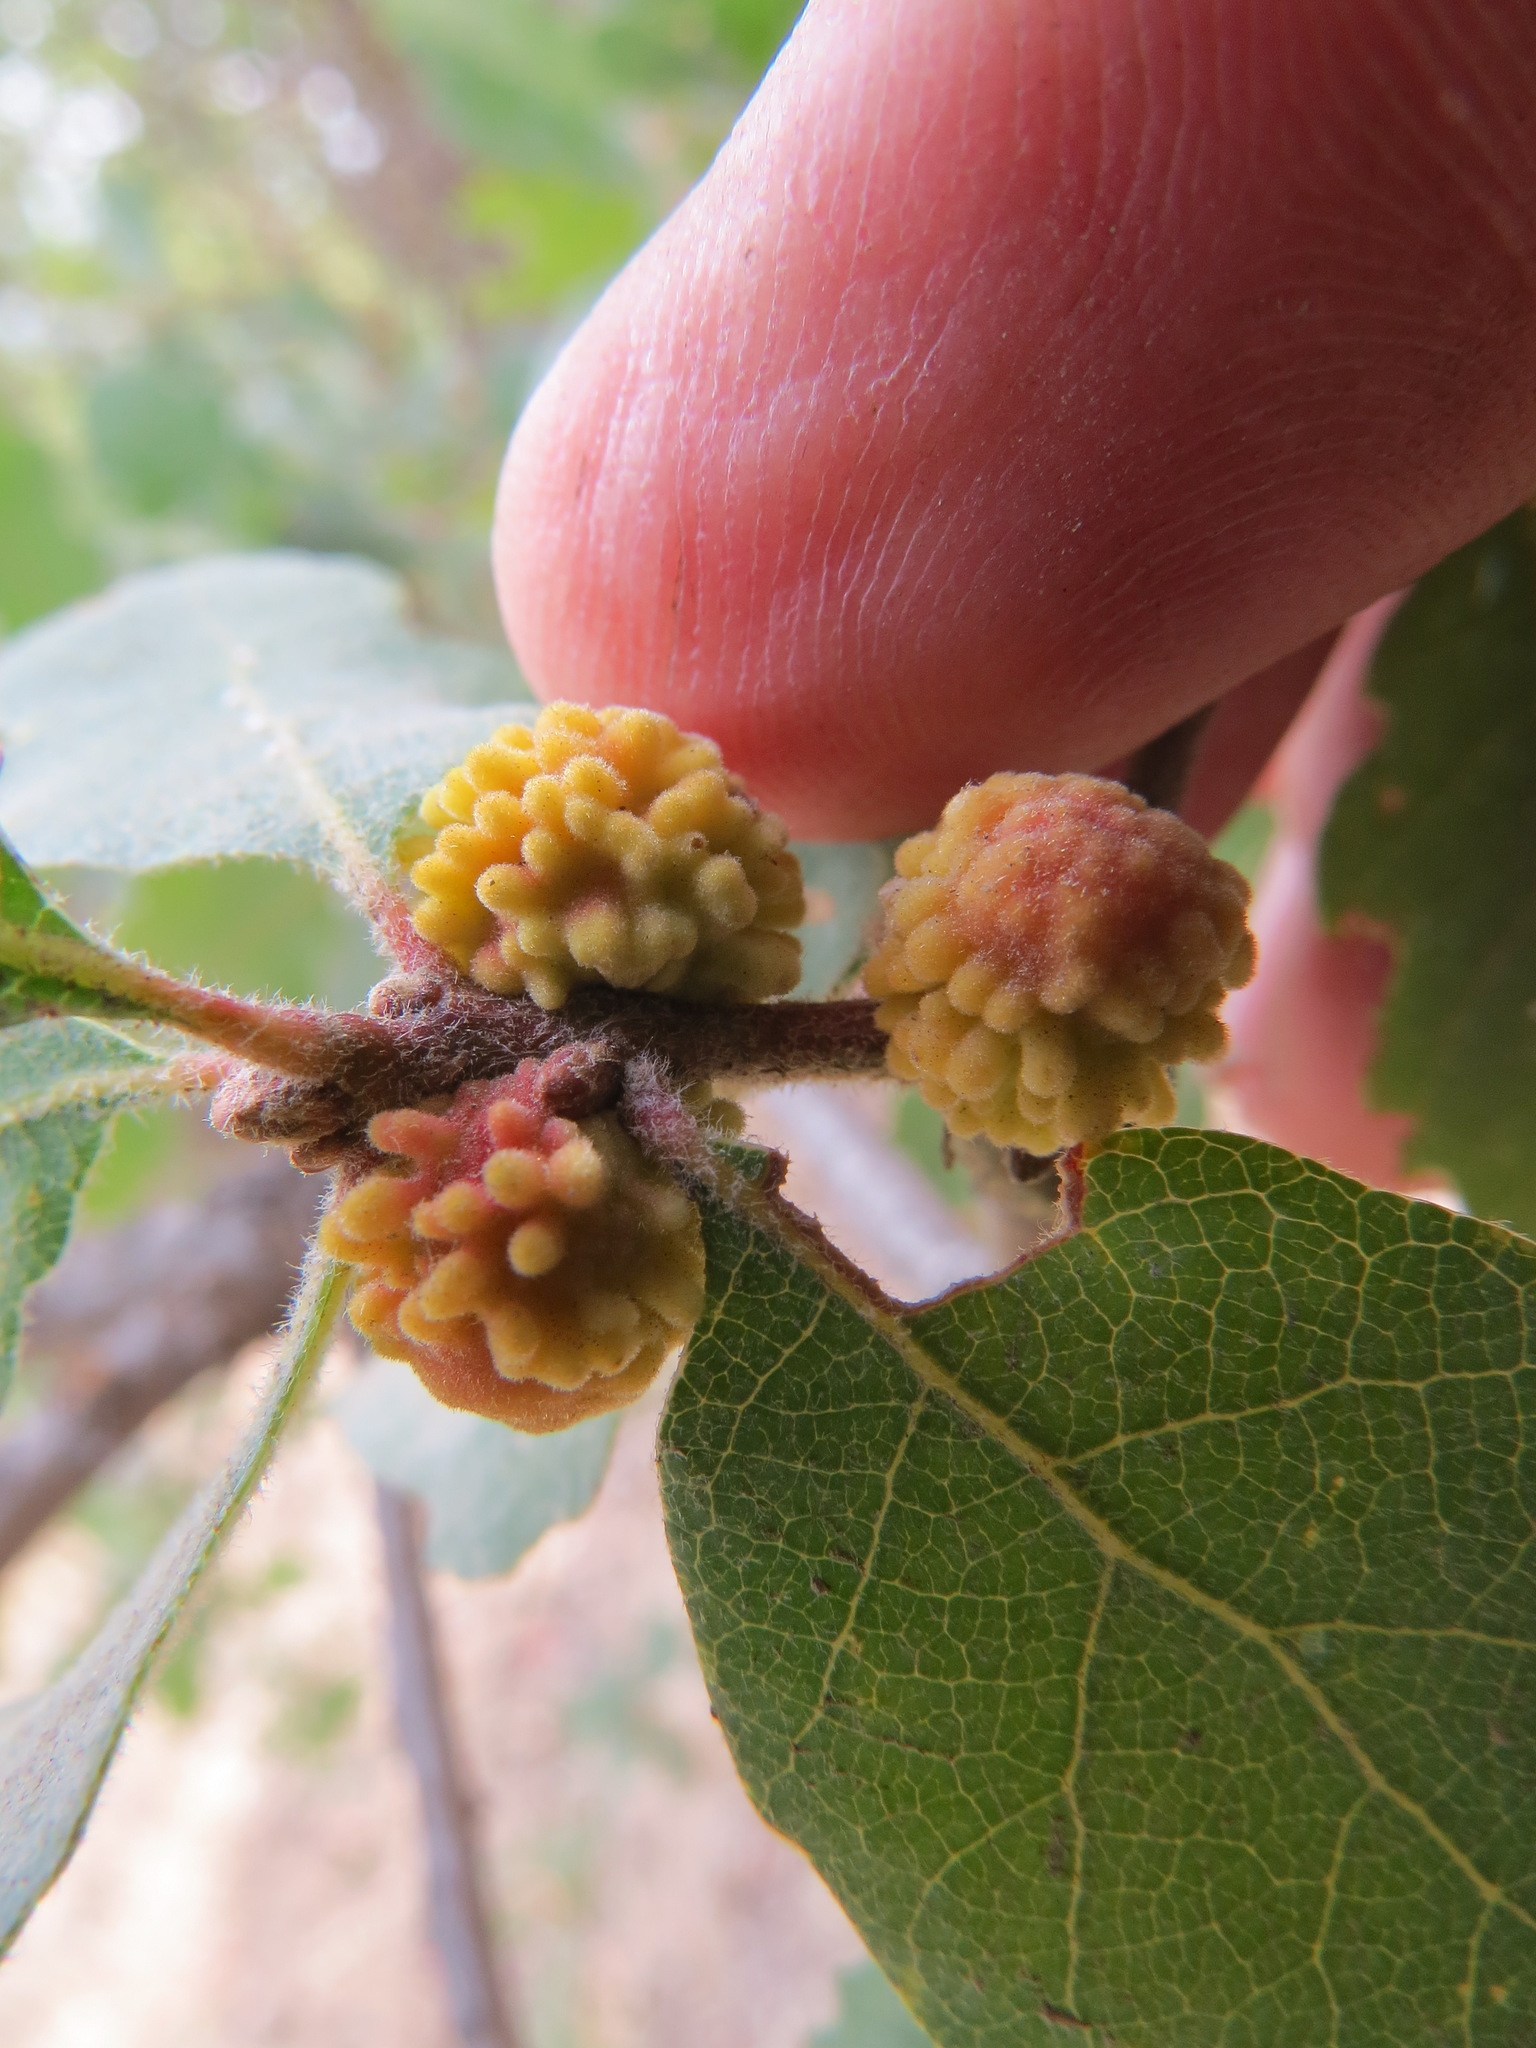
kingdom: Animalia
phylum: Arthropoda
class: Insecta
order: Hymenoptera
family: Cynipidae
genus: Burnettweldia
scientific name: Burnettweldia
